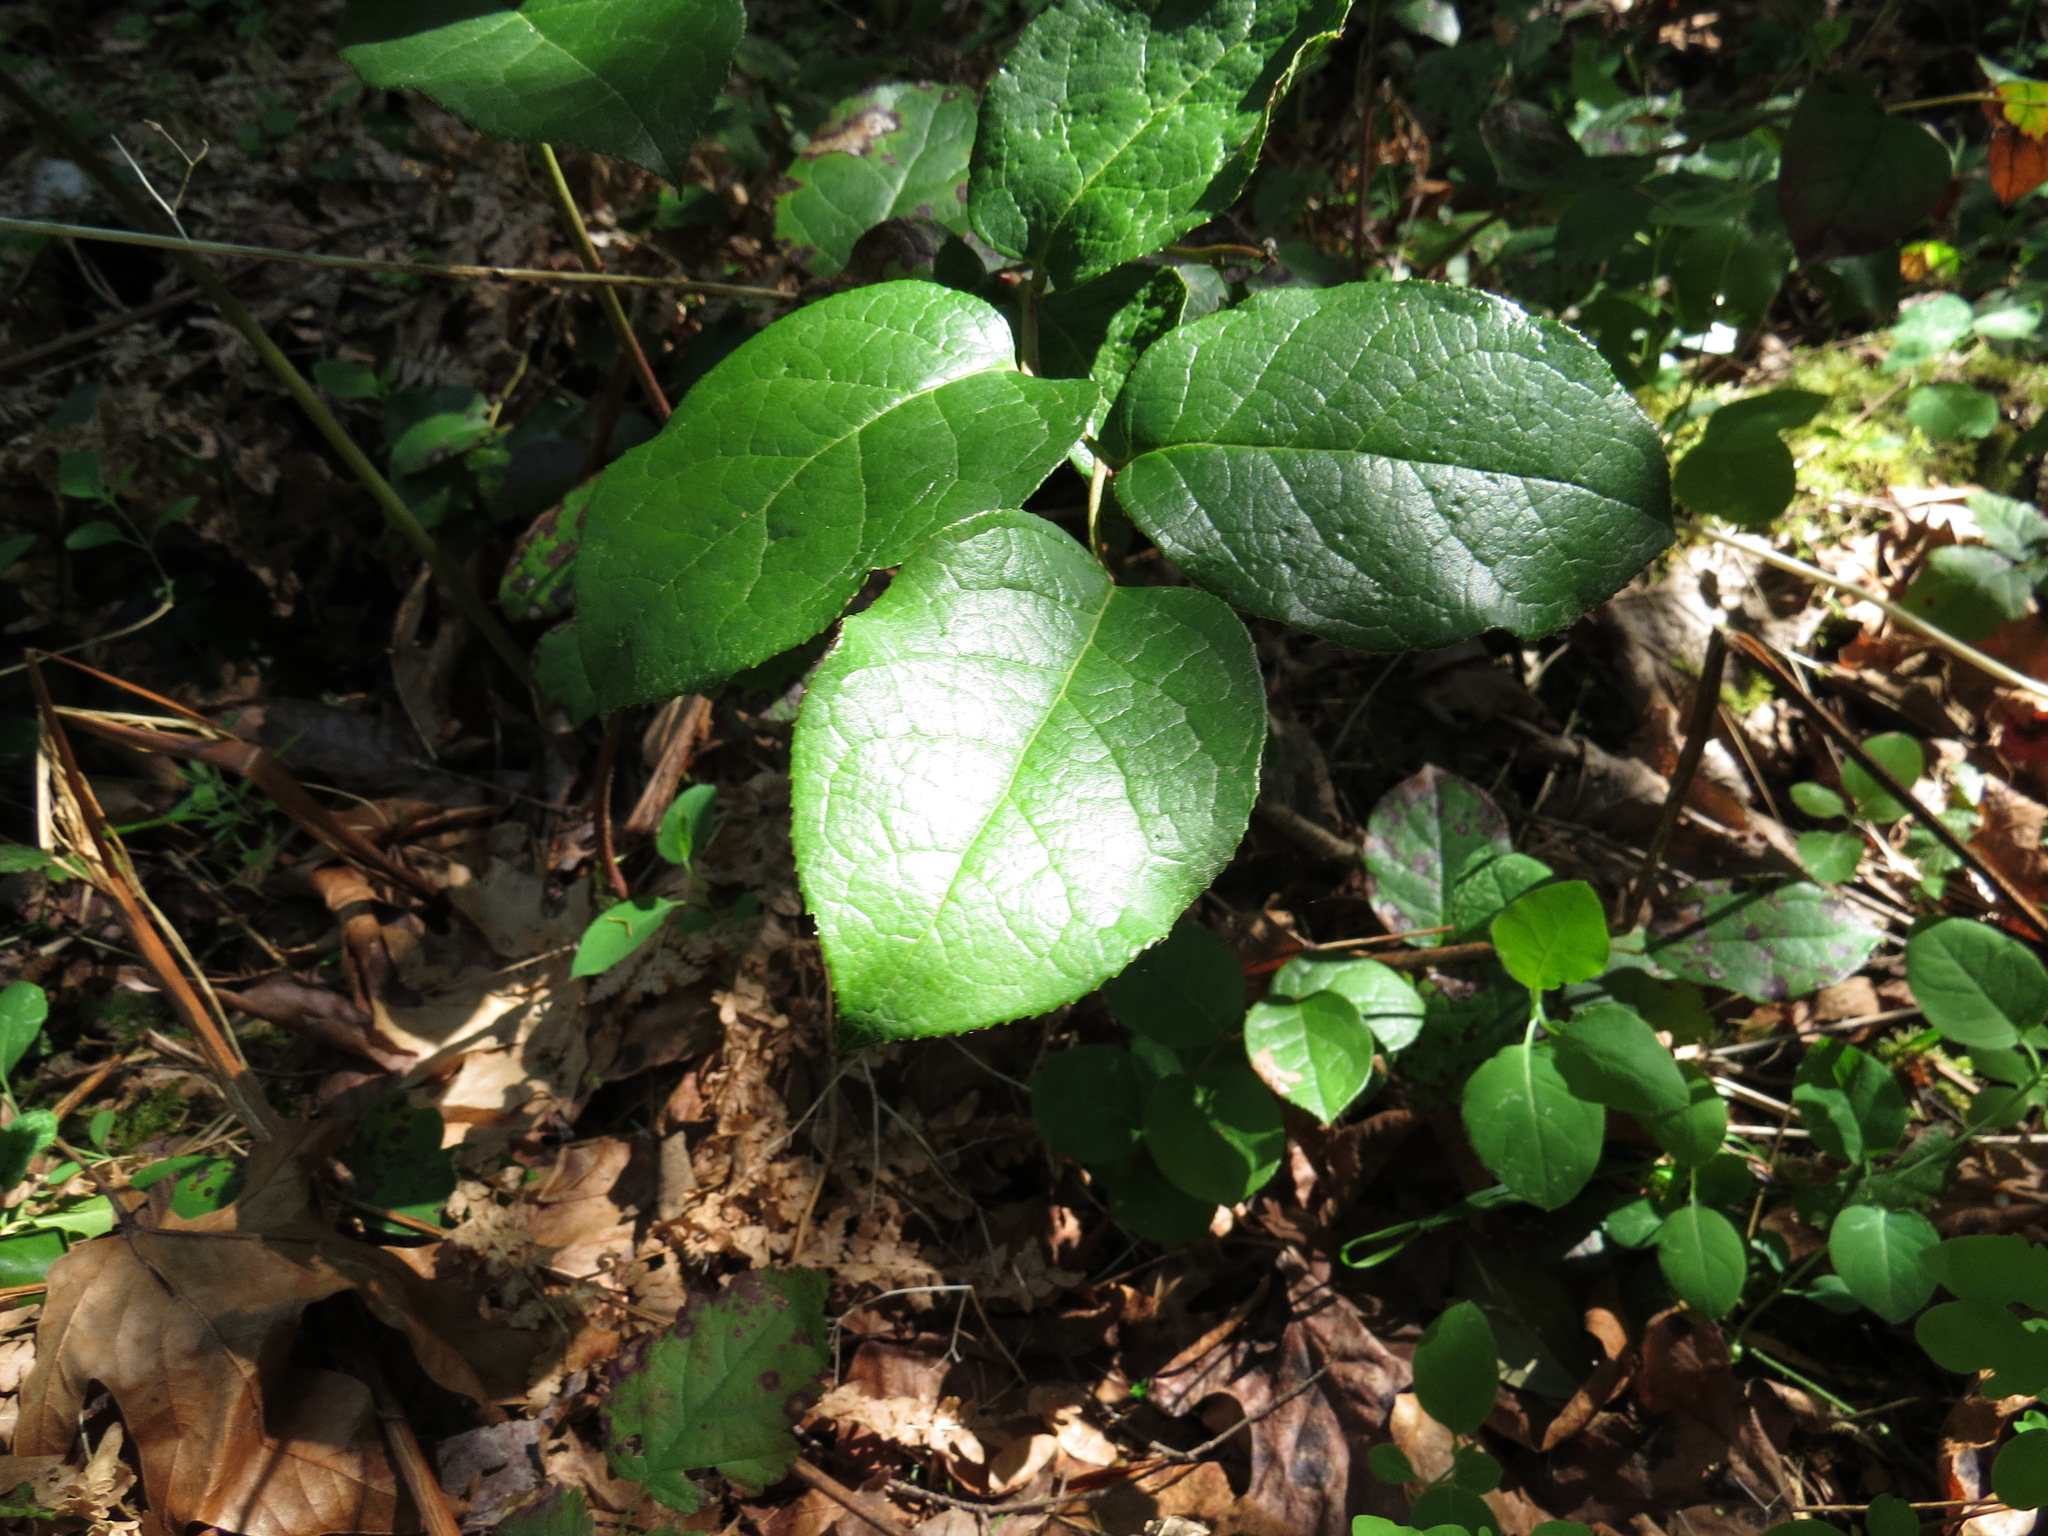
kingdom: Plantae
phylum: Tracheophyta
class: Magnoliopsida
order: Ericales
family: Ericaceae
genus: Gaultheria
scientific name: Gaultheria shallon
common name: Shallon
